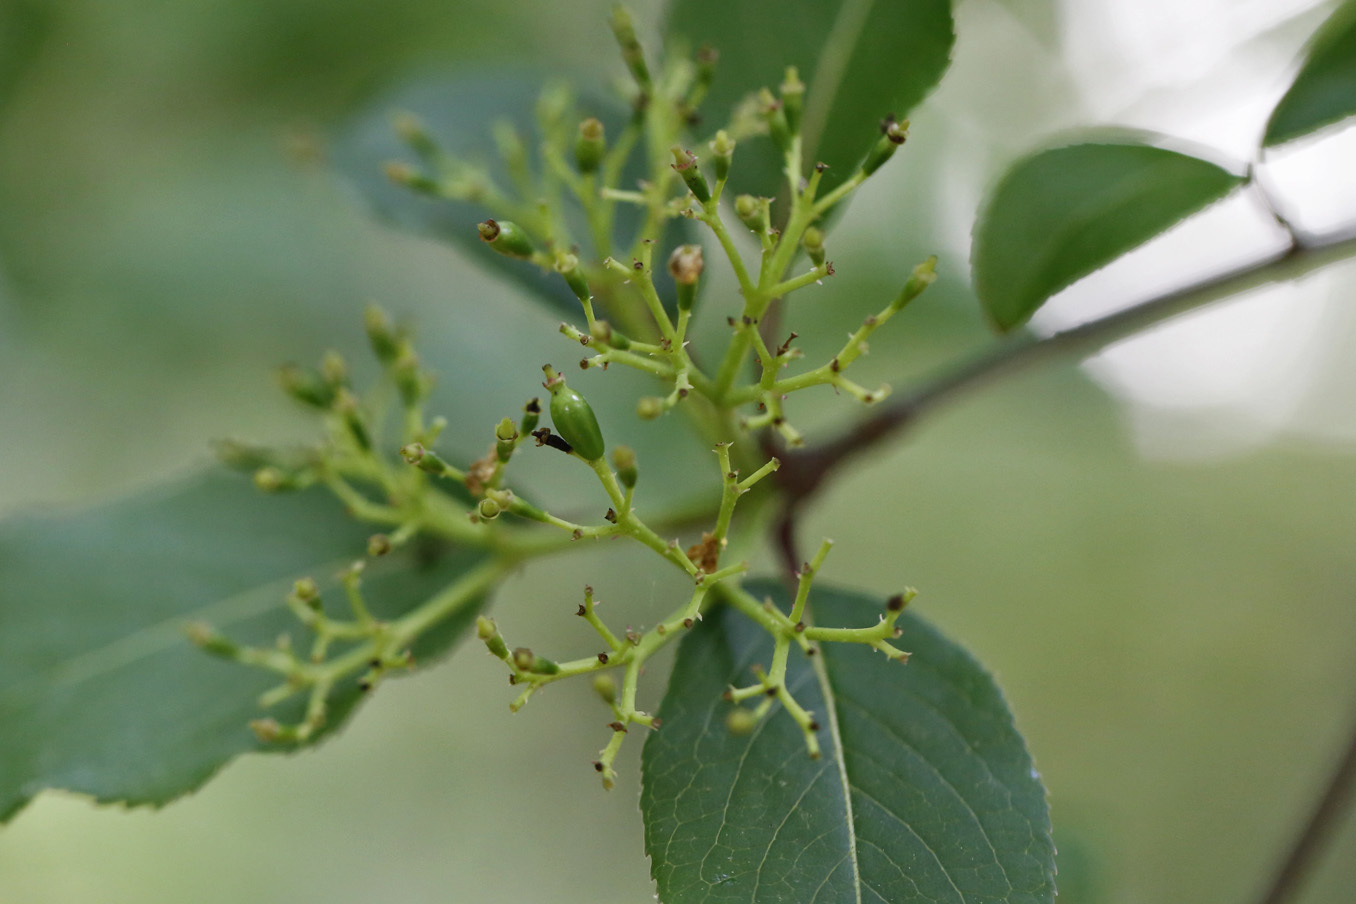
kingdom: Plantae
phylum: Tracheophyta
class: Magnoliopsida
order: Dipsacales
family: Viburnaceae
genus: Viburnum
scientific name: Viburnum prunifolium
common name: Black haw
